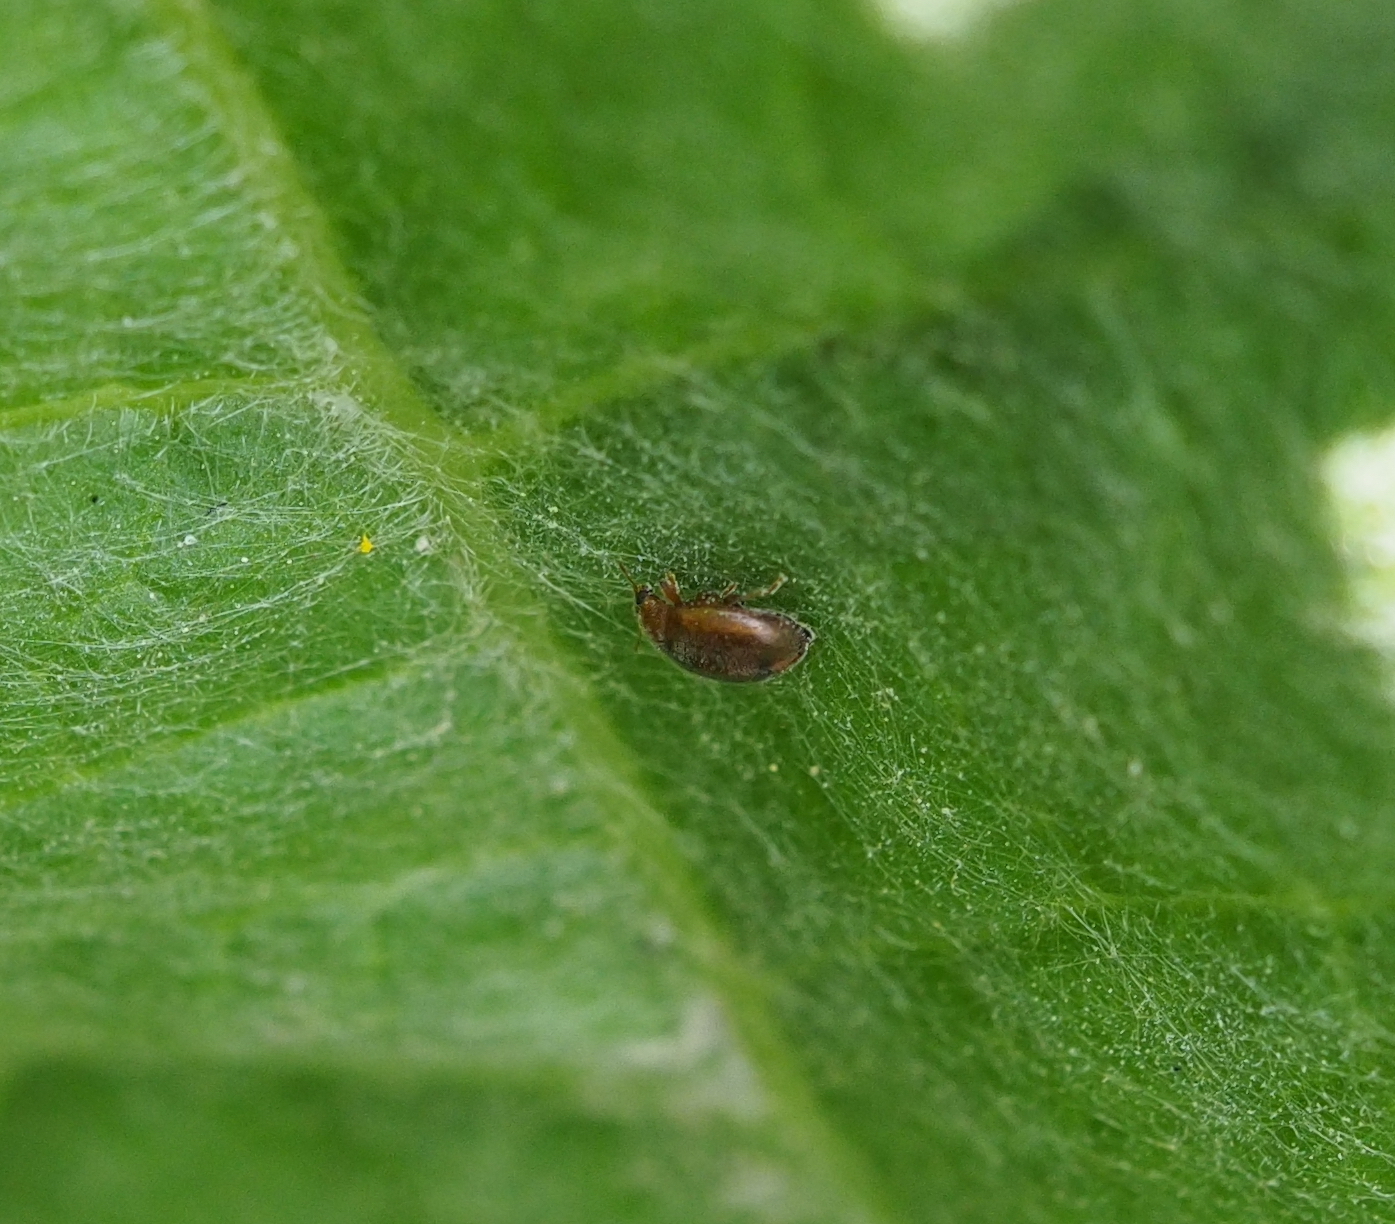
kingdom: Animalia
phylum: Arthropoda
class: Insecta
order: Coleoptera
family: Coccinellidae
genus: Rhyzobius
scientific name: Rhyzobius litura
